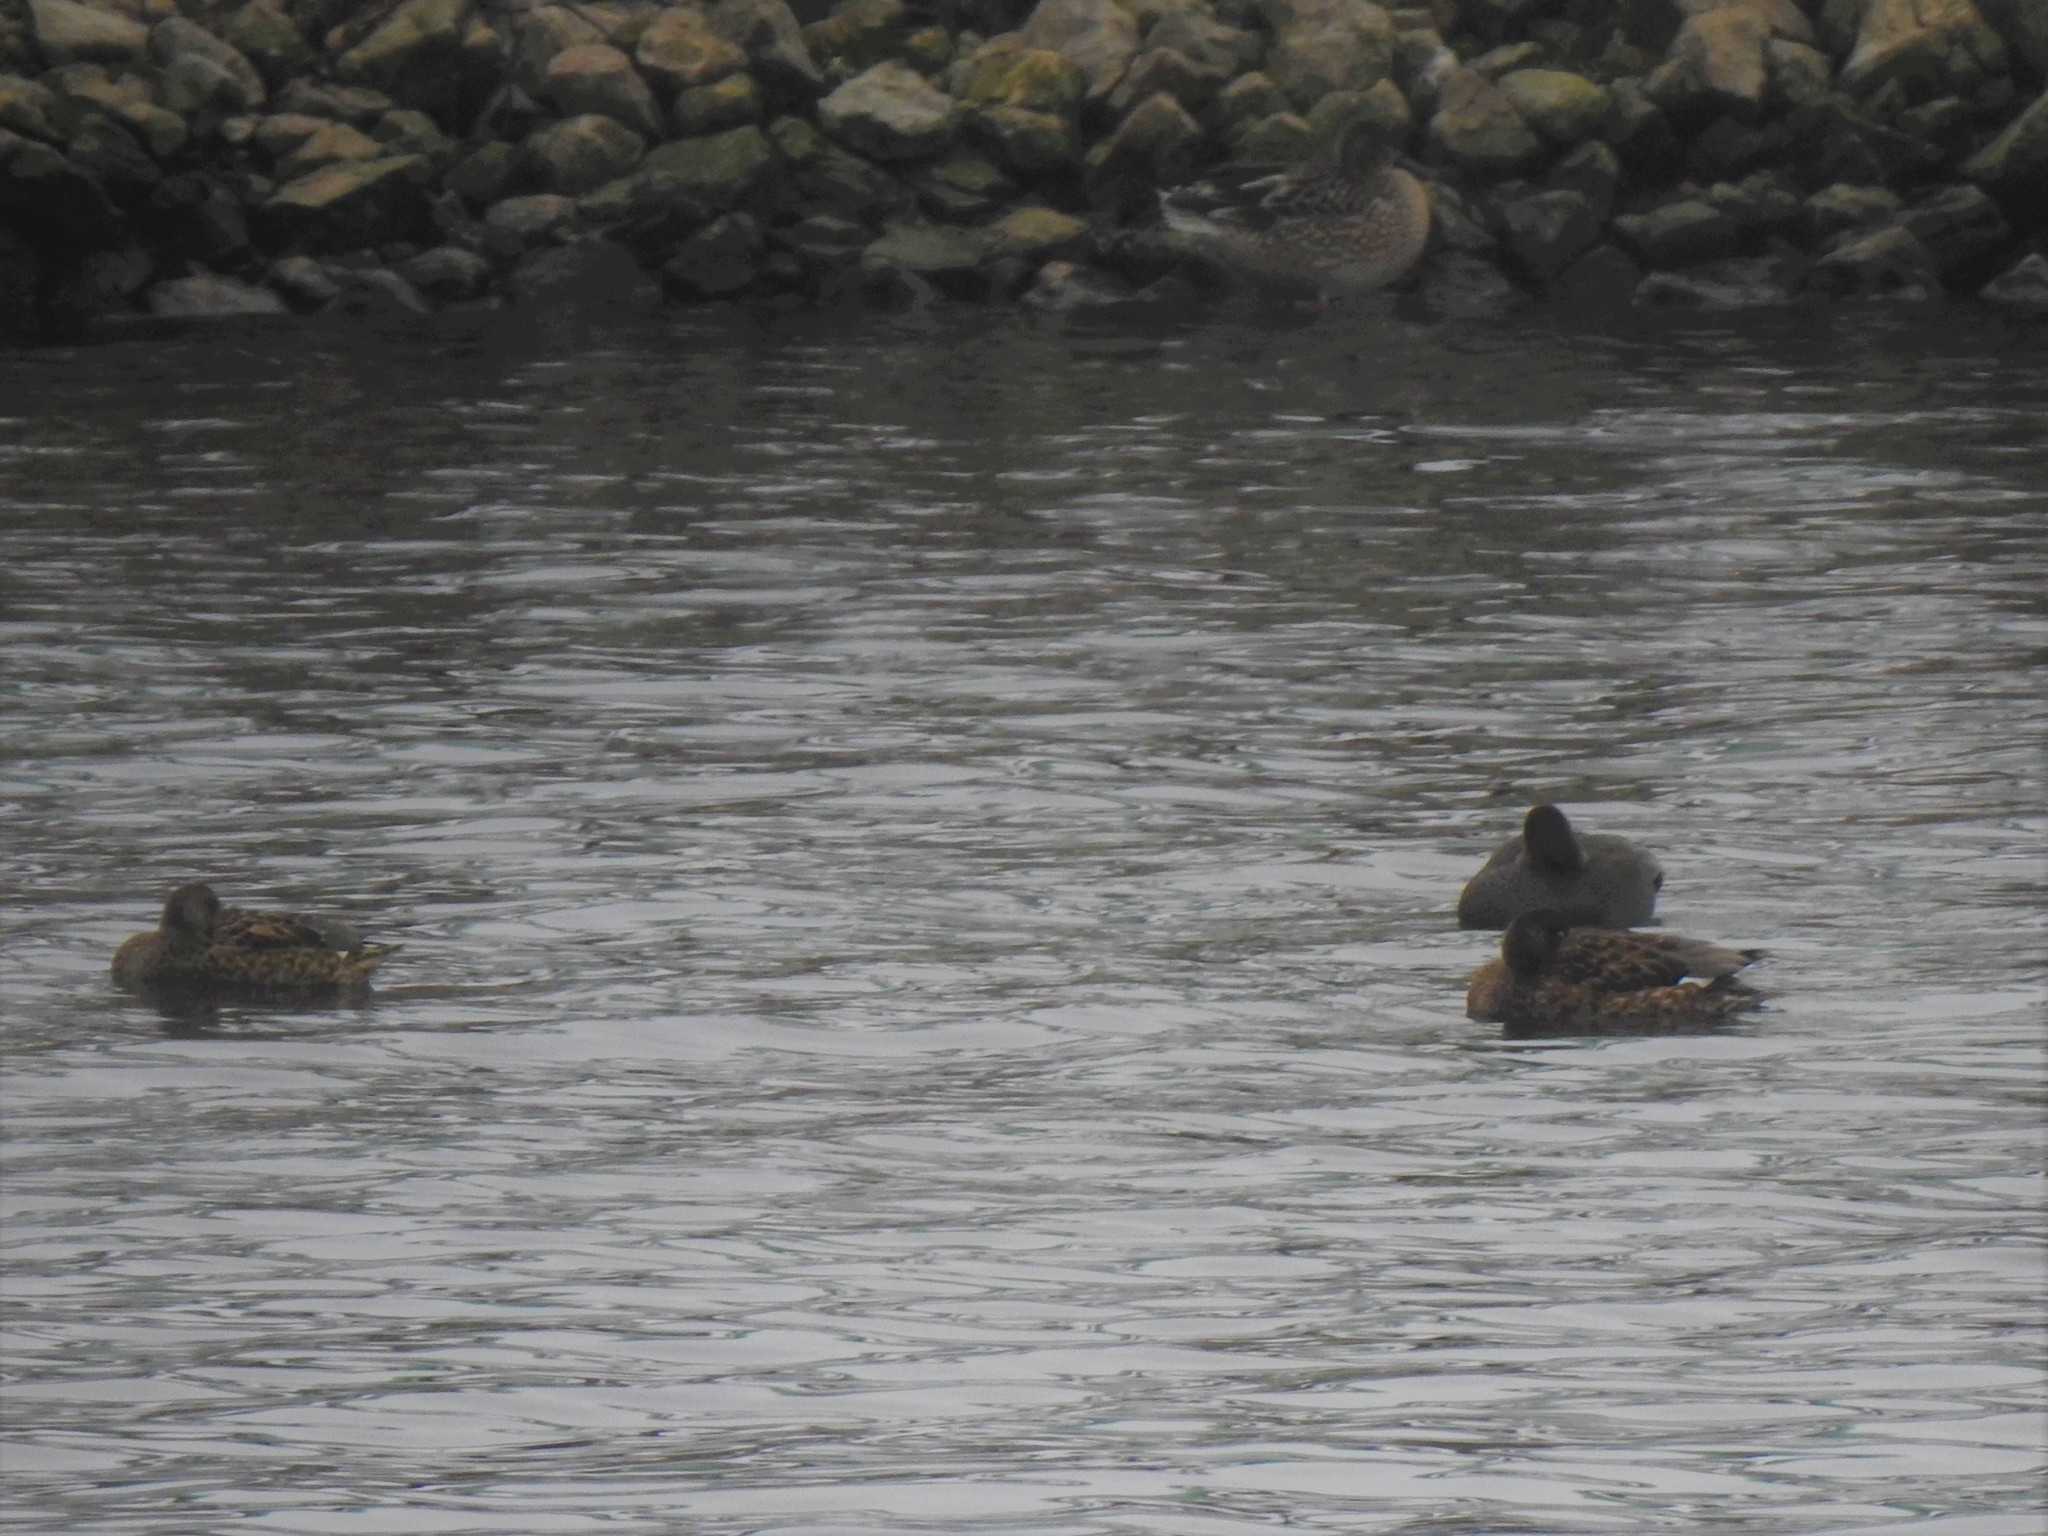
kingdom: Animalia
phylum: Chordata
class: Aves
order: Anseriformes
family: Anatidae
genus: Mareca
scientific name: Mareca strepera
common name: Gadwall
